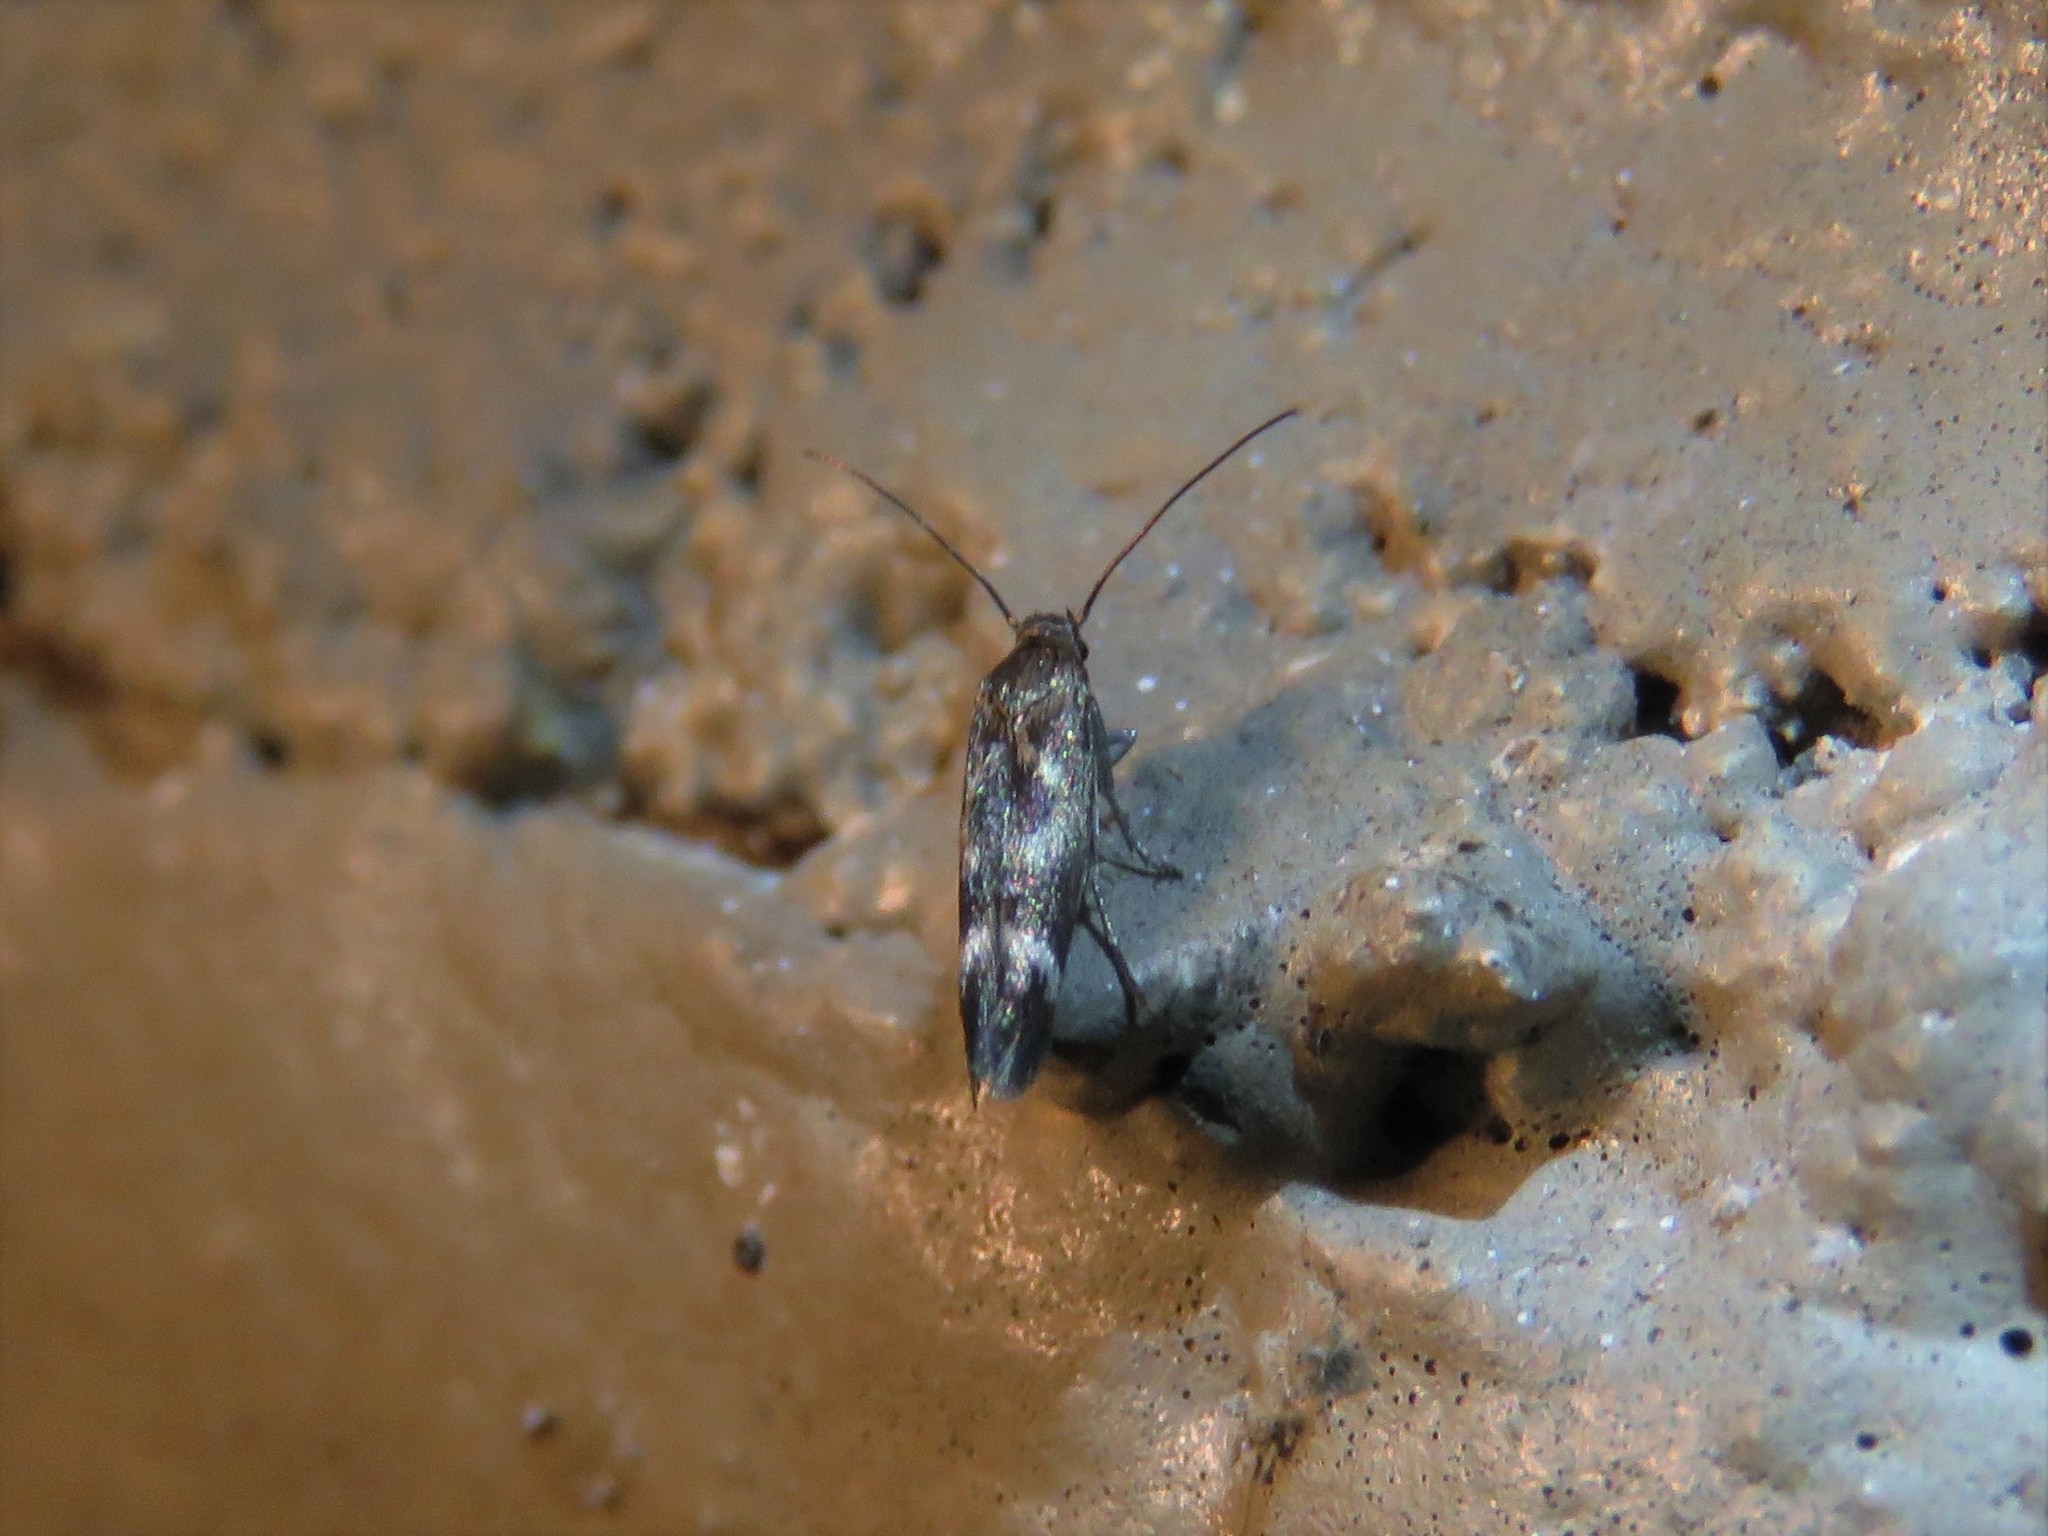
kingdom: Animalia
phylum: Arthropoda
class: Insecta
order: Lepidoptera
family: Scythrididae
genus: Scythris
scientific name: Scythris trivinctella
